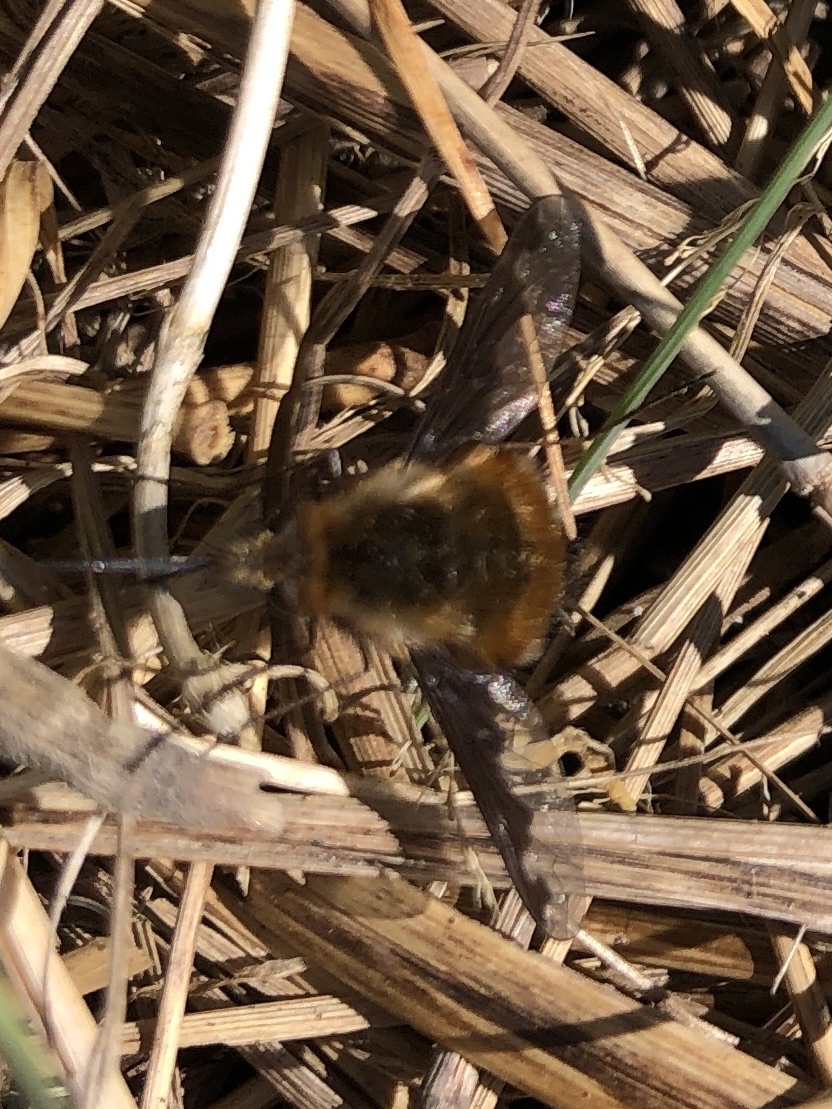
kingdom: Animalia
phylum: Arthropoda
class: Insecta
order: Diptera
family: Bombyliidae
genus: Bombylius
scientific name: Bombylius major
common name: Bee fly
